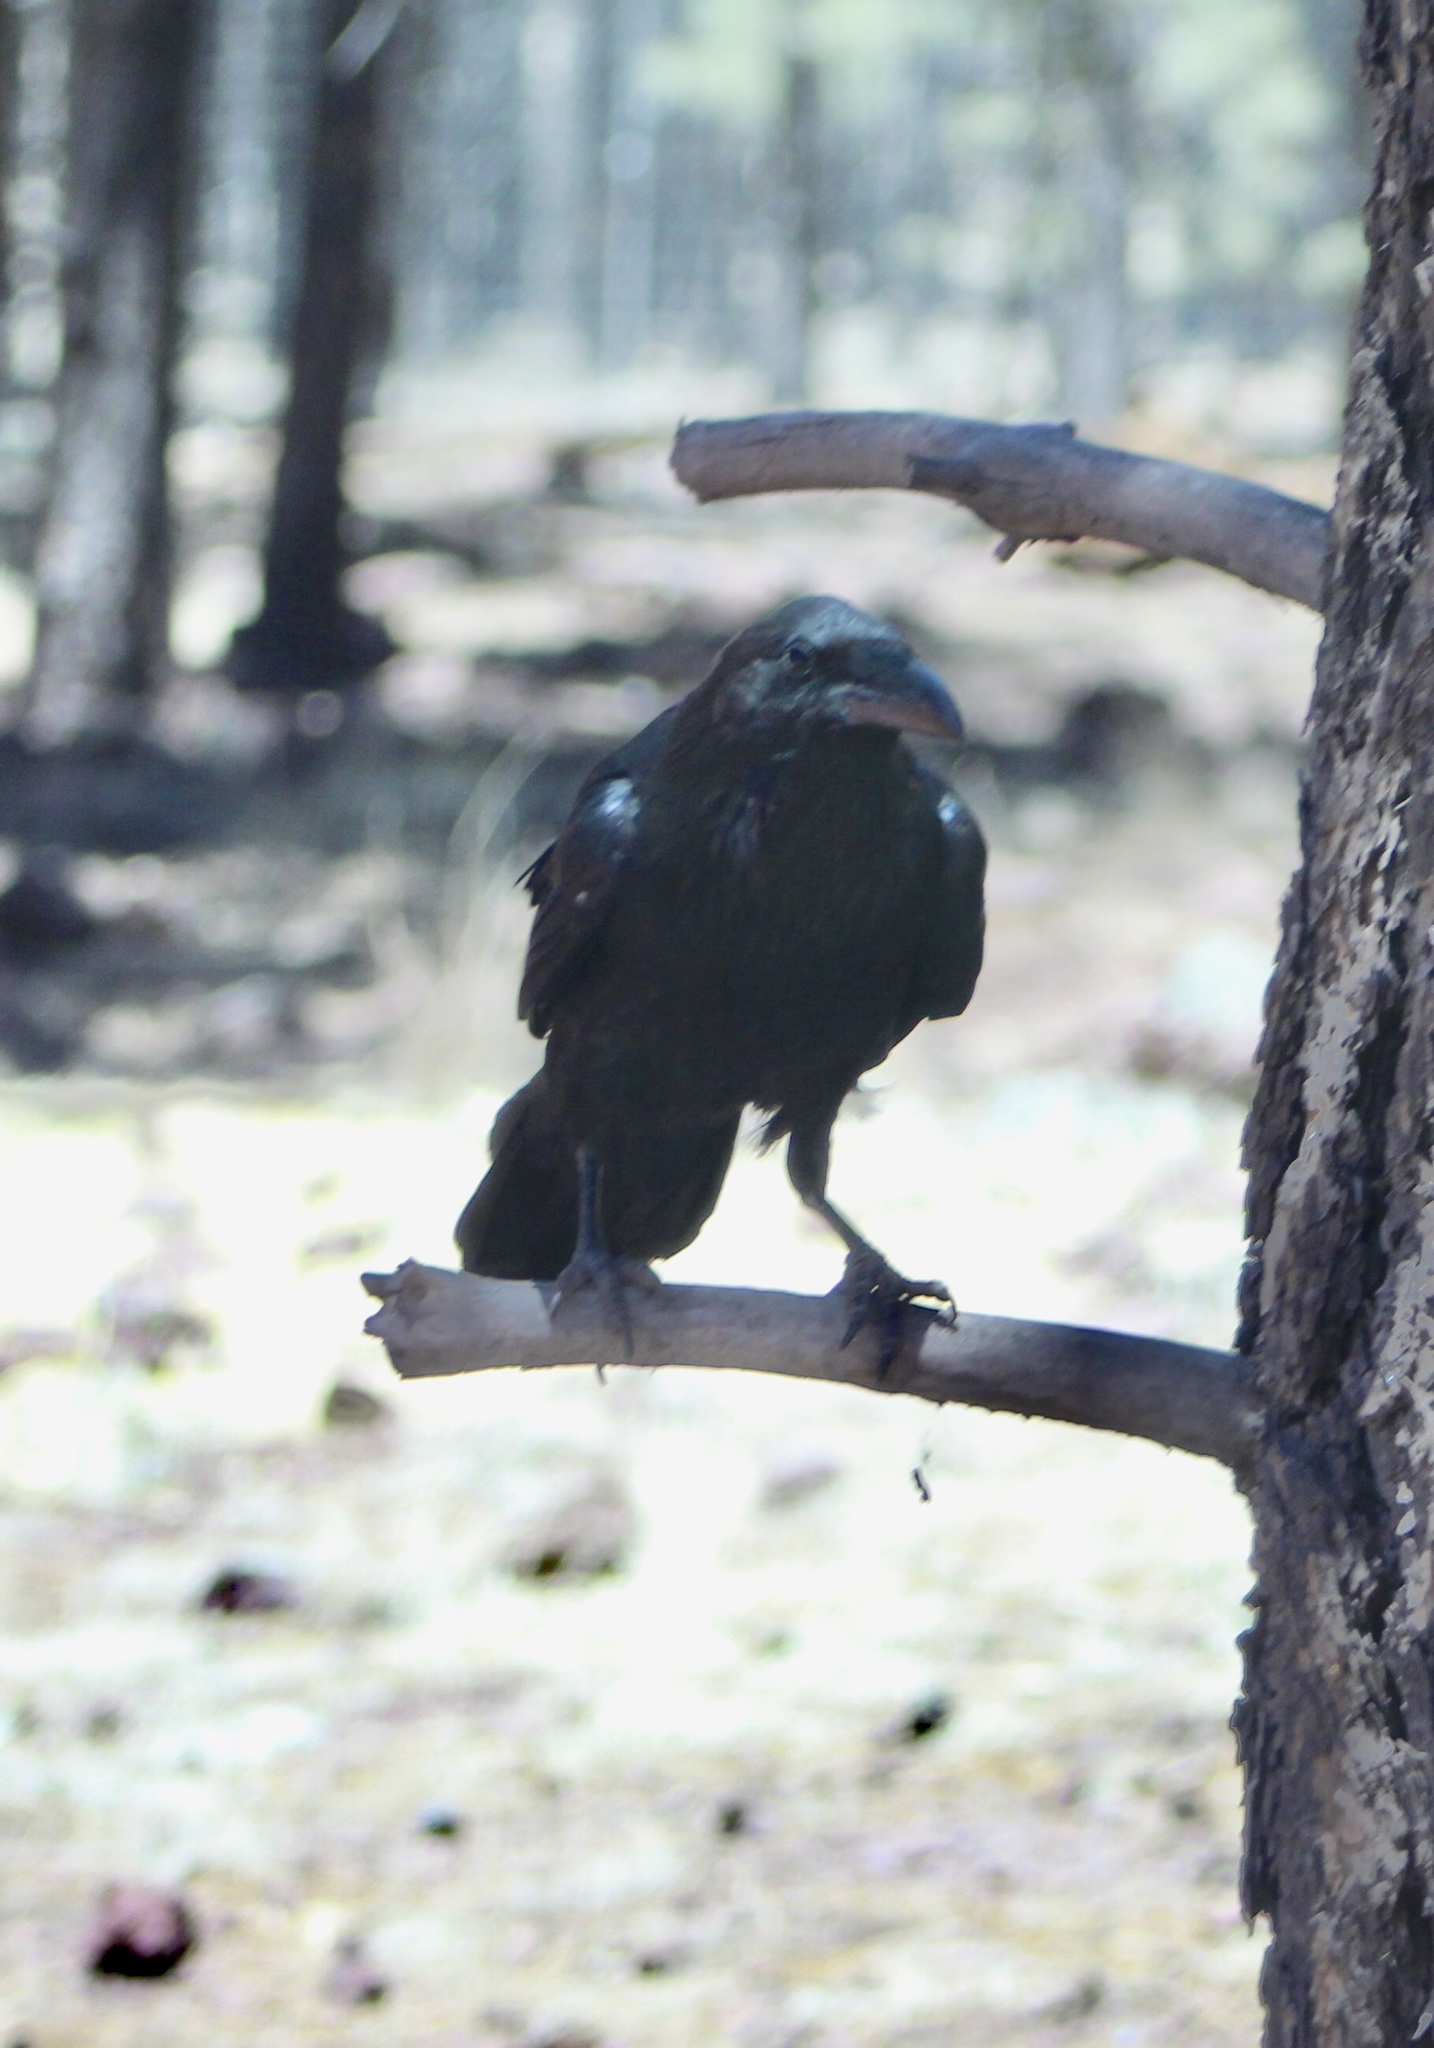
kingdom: Animalia
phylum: Chordata
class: Aves
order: Passeriformes
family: Corvidae
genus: Corvus
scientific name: Corvus corax
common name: Common raven
